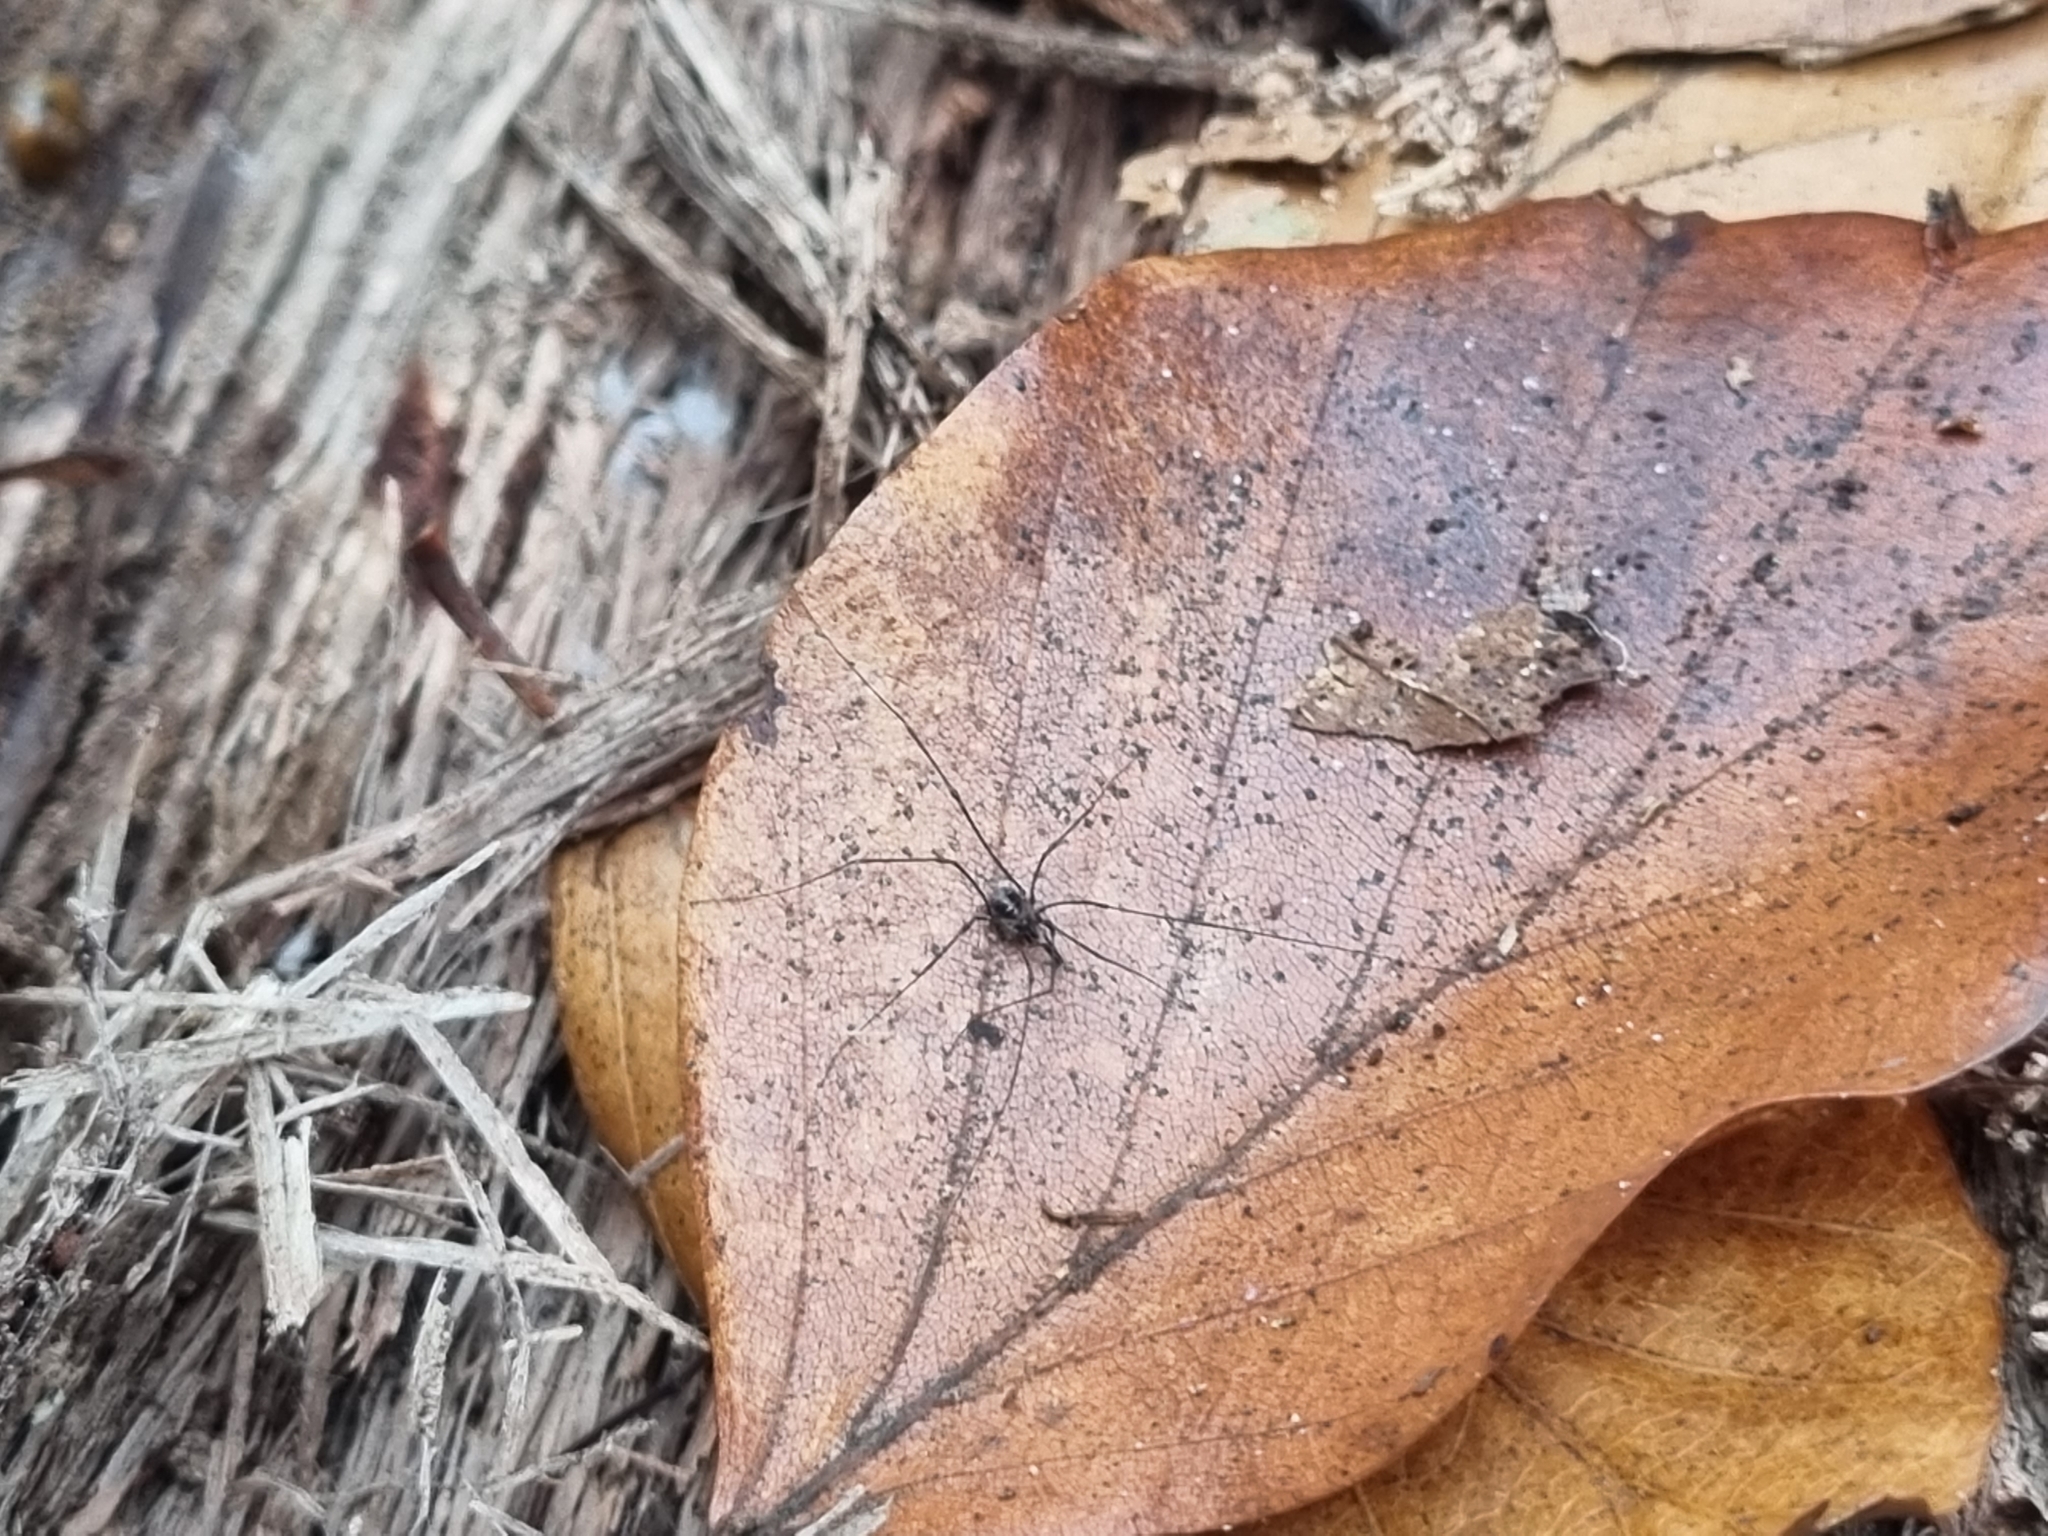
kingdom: Animalia
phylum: Arthropoda
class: Arachnida
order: Opiliones
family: Nemastomatidae
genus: Mitostoma
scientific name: Mitostoma chrysomelas
